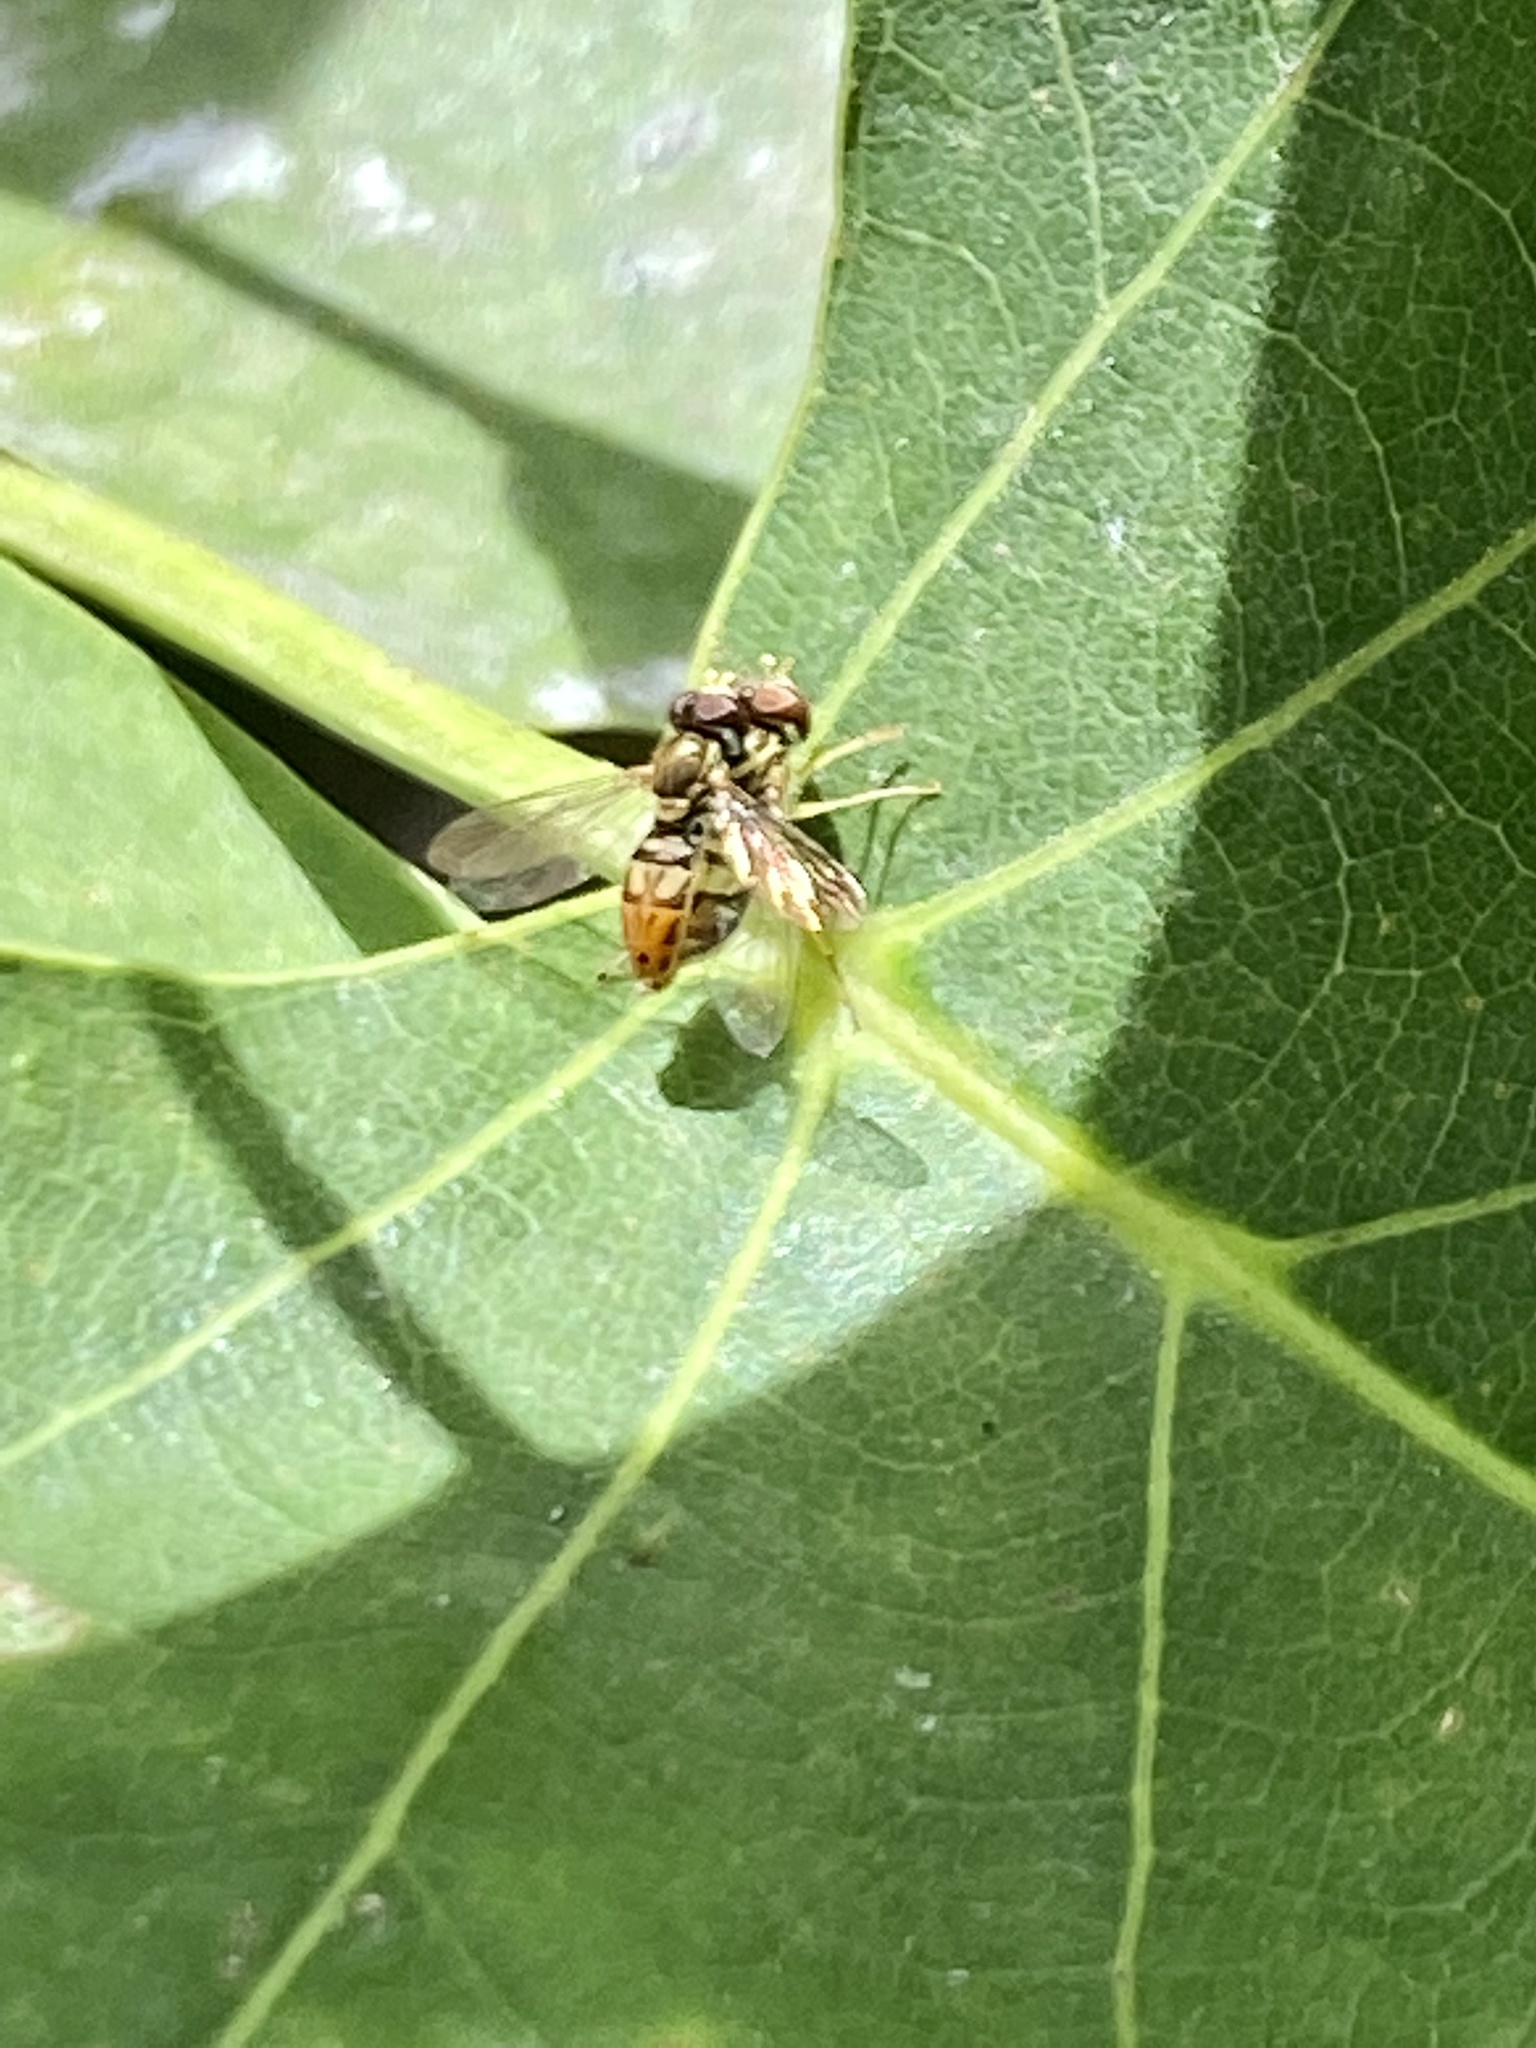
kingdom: Animalia
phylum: Arthropoda
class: Insecta
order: Diptera
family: Syrphidae
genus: Toxomerus
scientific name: Toxomerus marginatus
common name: Syrphid fly
